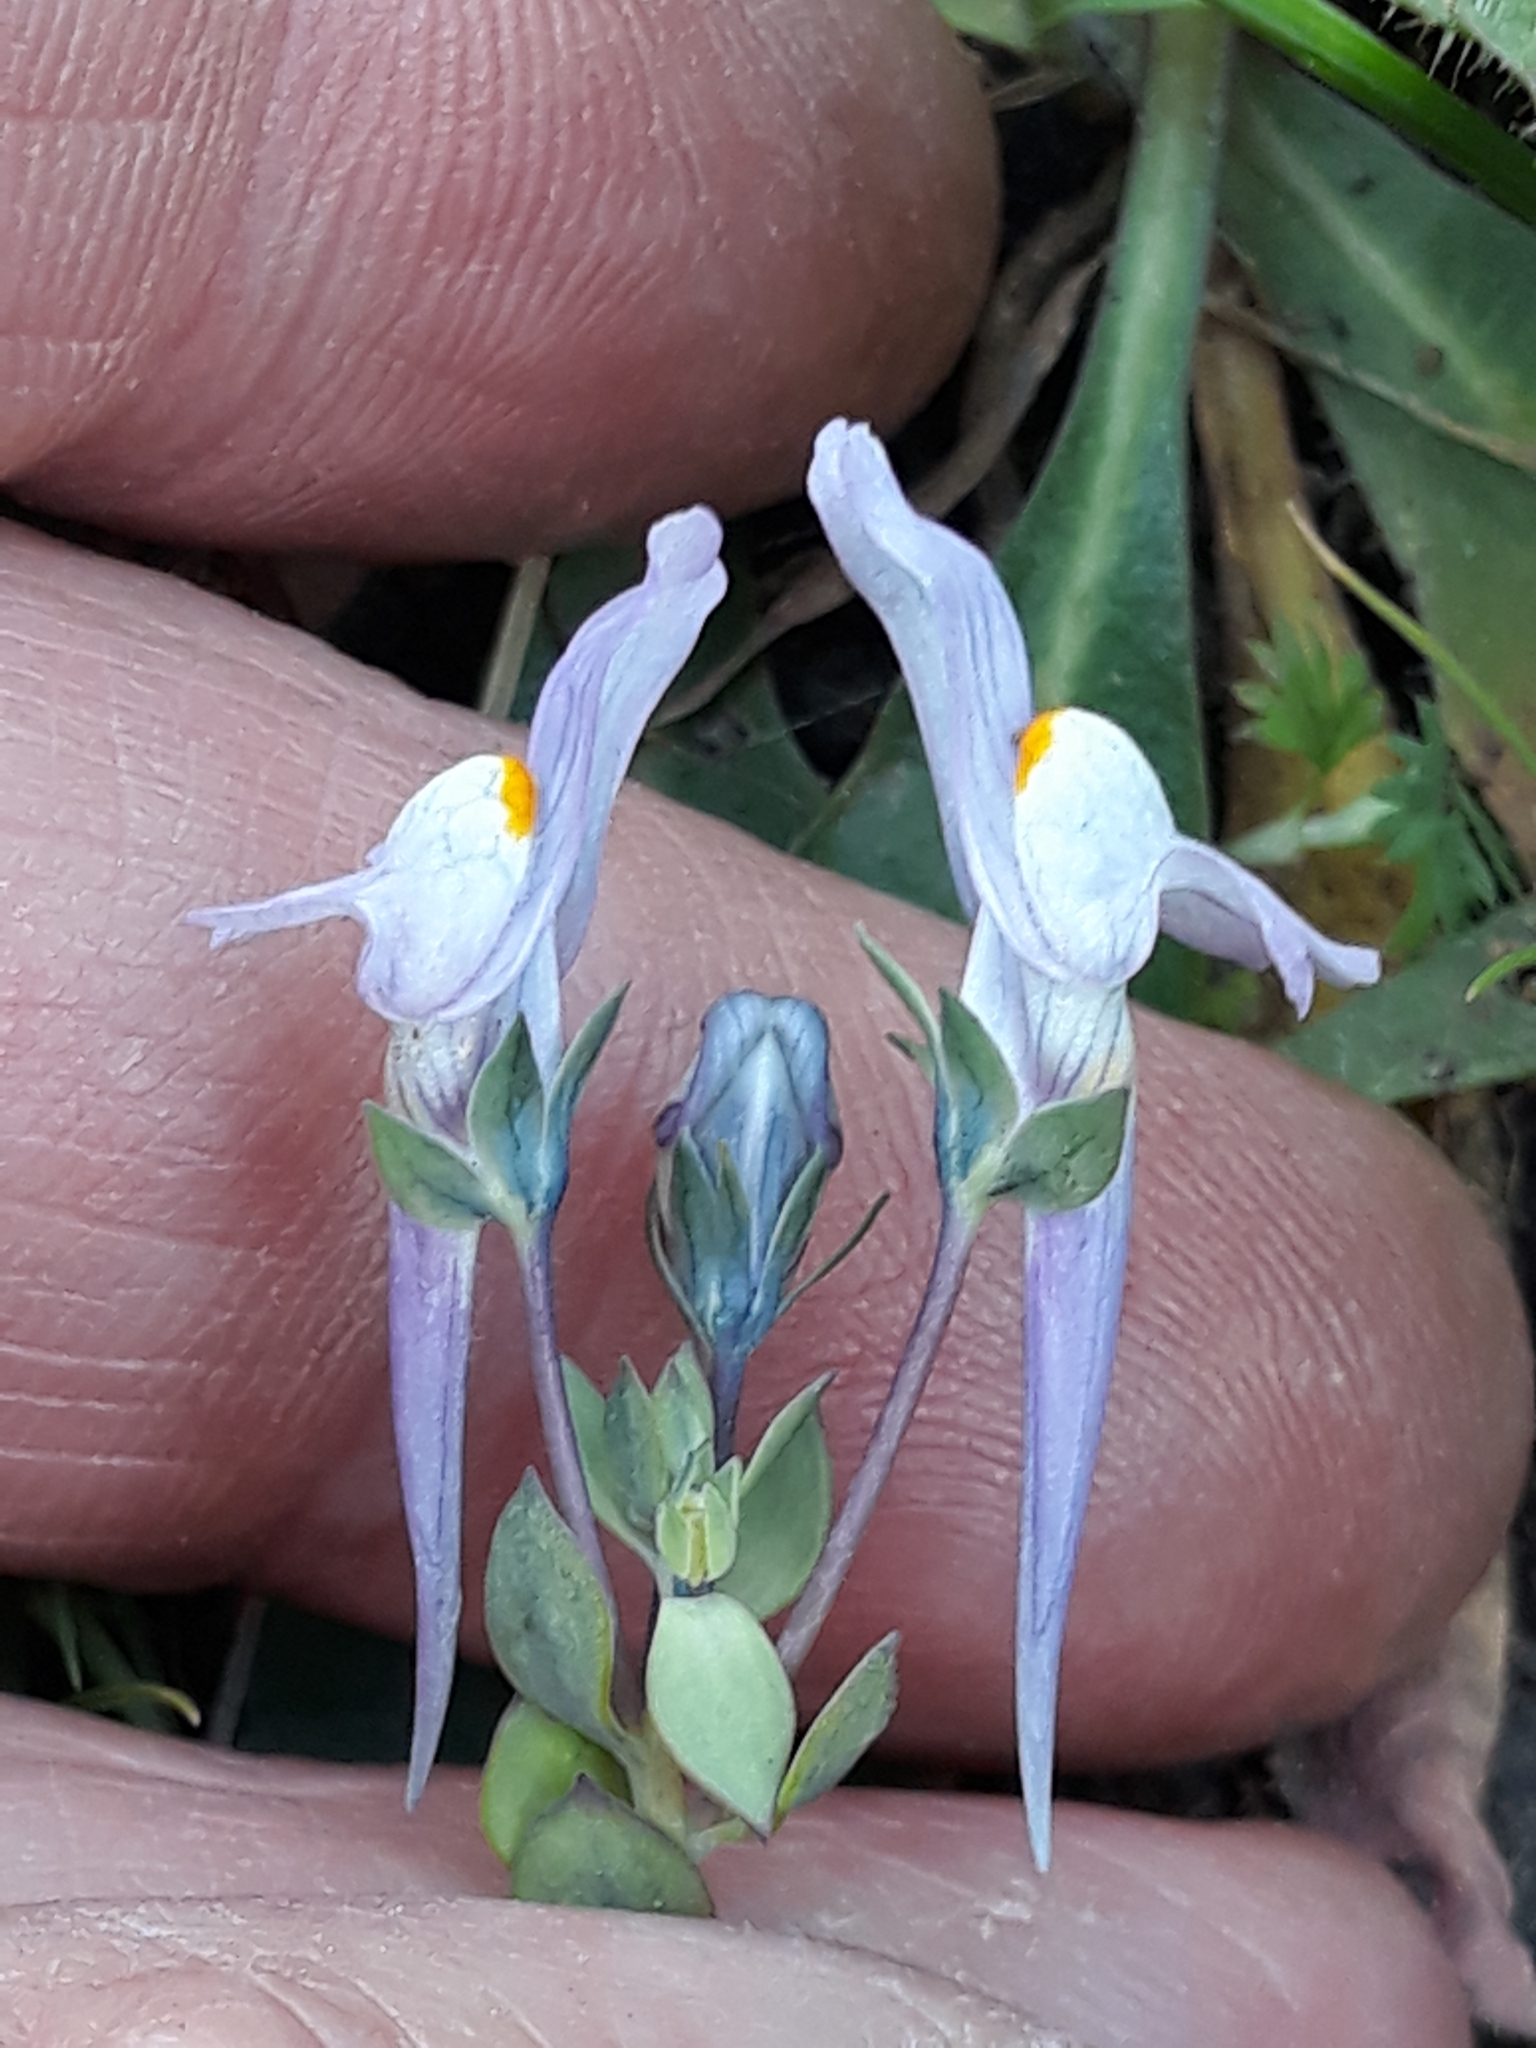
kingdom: Plantae
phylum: Tracheophyta
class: Magnoliopsida
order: Lamiales
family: Plantaginaceae
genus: Linaria
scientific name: Linaria reflexa
